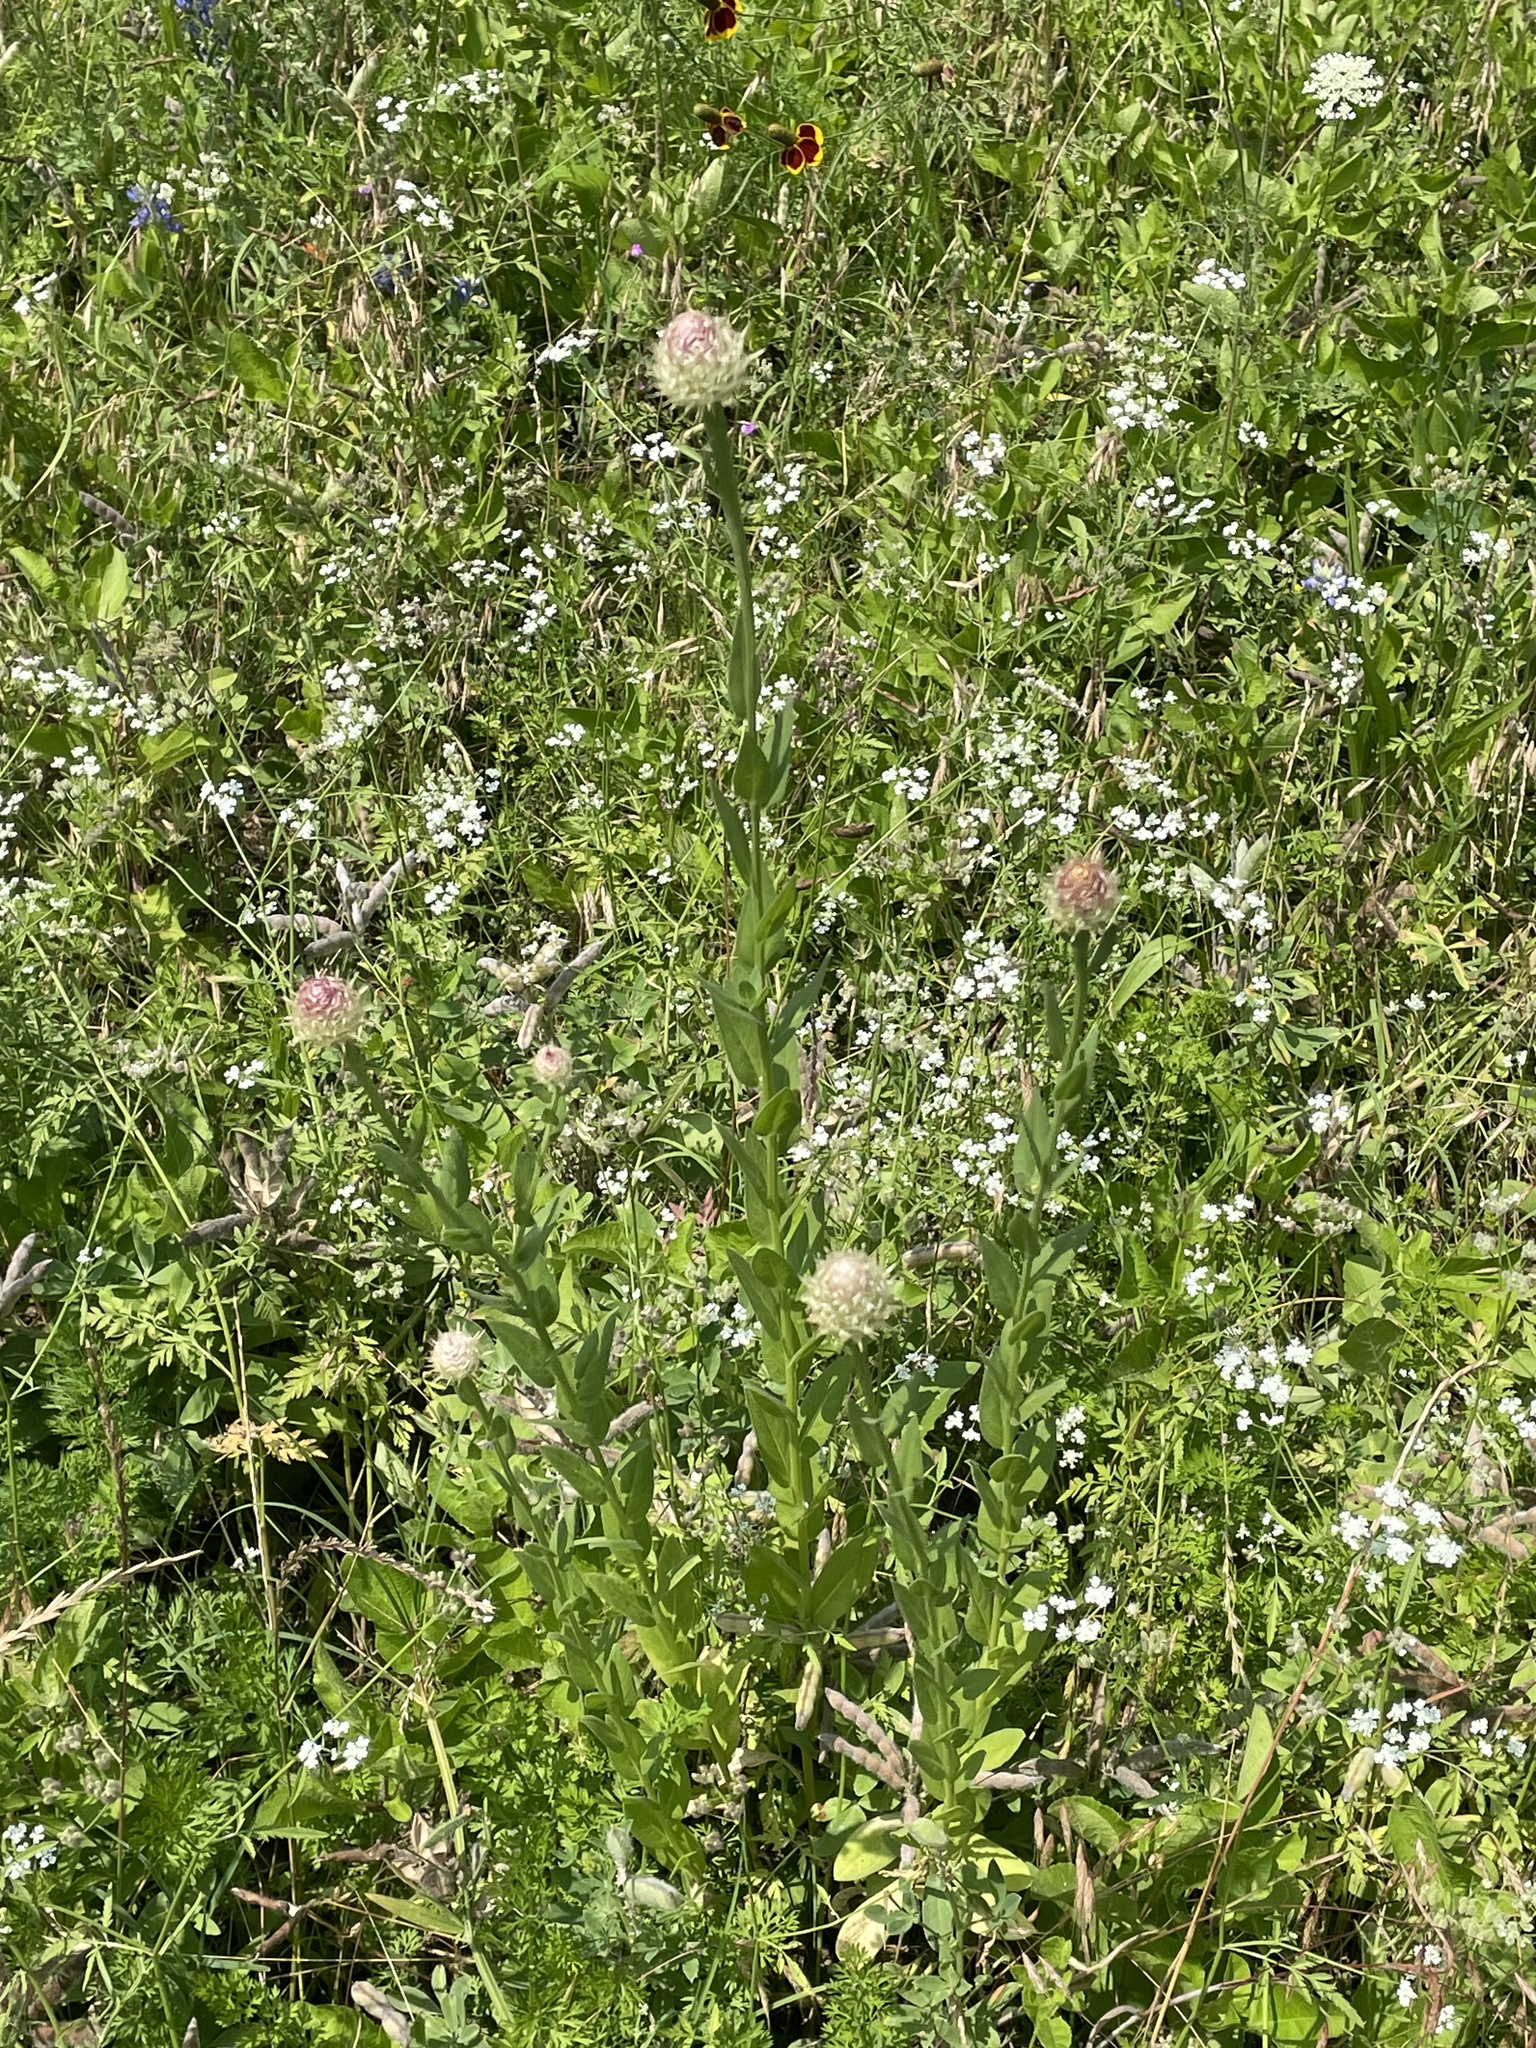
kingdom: Plantae
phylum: Tracheophyta
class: Magnoliopsida
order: Asterales
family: Asteraceae
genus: Plectocephalus
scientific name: Plectocephalus americanus
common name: American basket-flower
